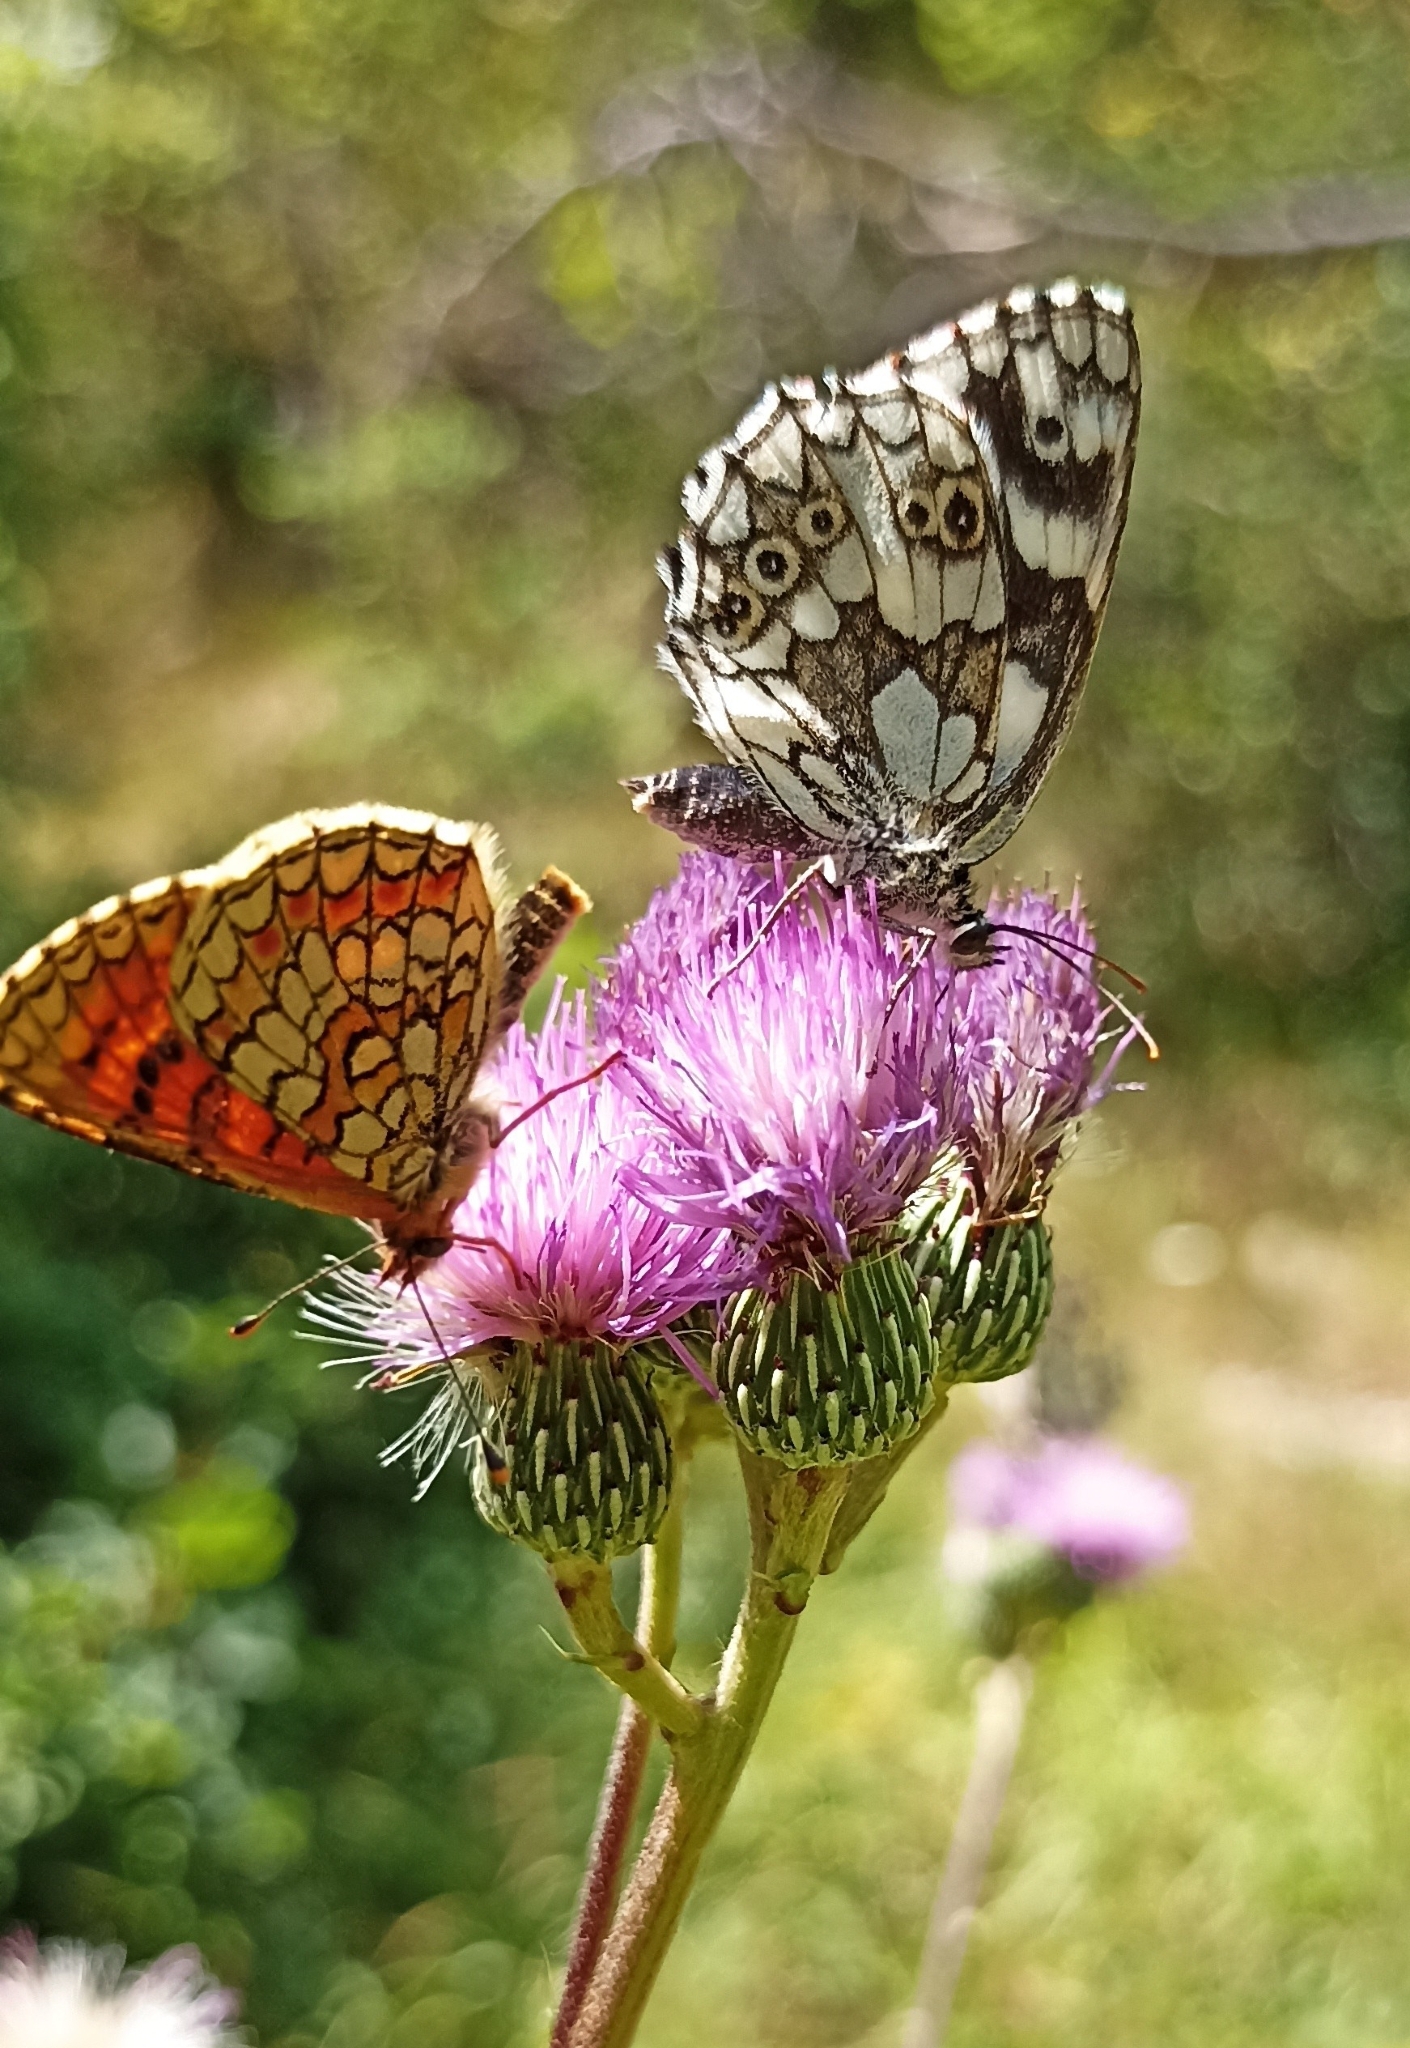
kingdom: Animalia
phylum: Arthropoda
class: Insecta
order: Lepidoptera
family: Nymphalidae
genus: Melanargia
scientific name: Melanargia galathea
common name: Marbled white
